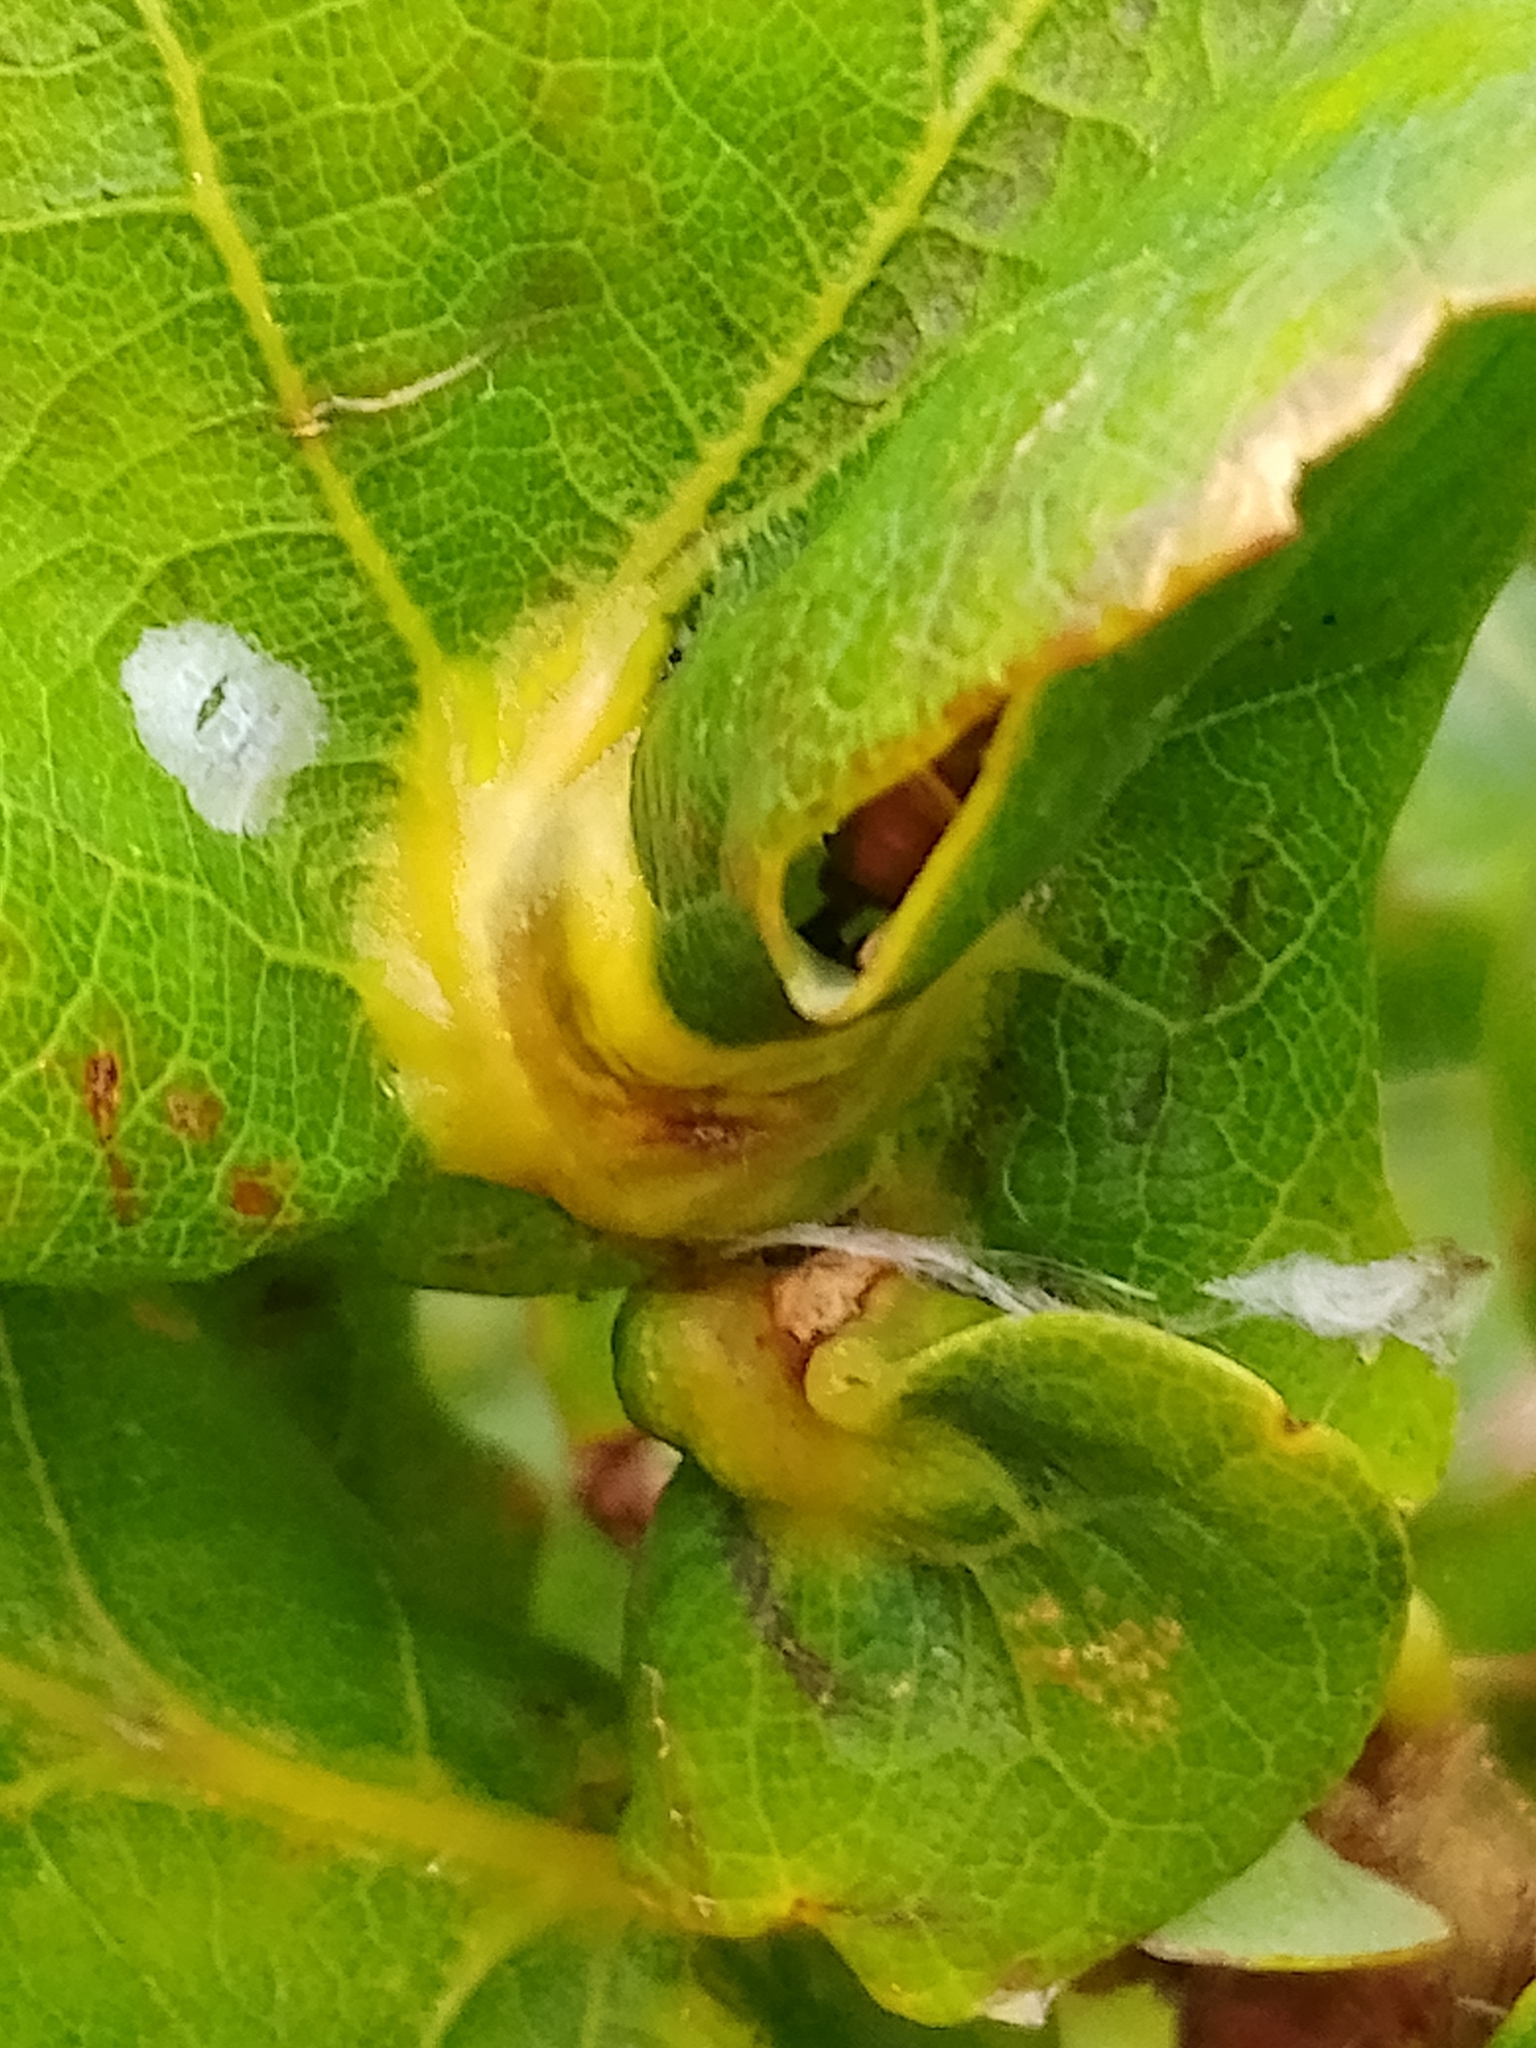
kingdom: Animalia
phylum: Arthropoda
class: Insecta
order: Hymenoptera
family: Cynipidae
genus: Andricus
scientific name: Andricus curvator
